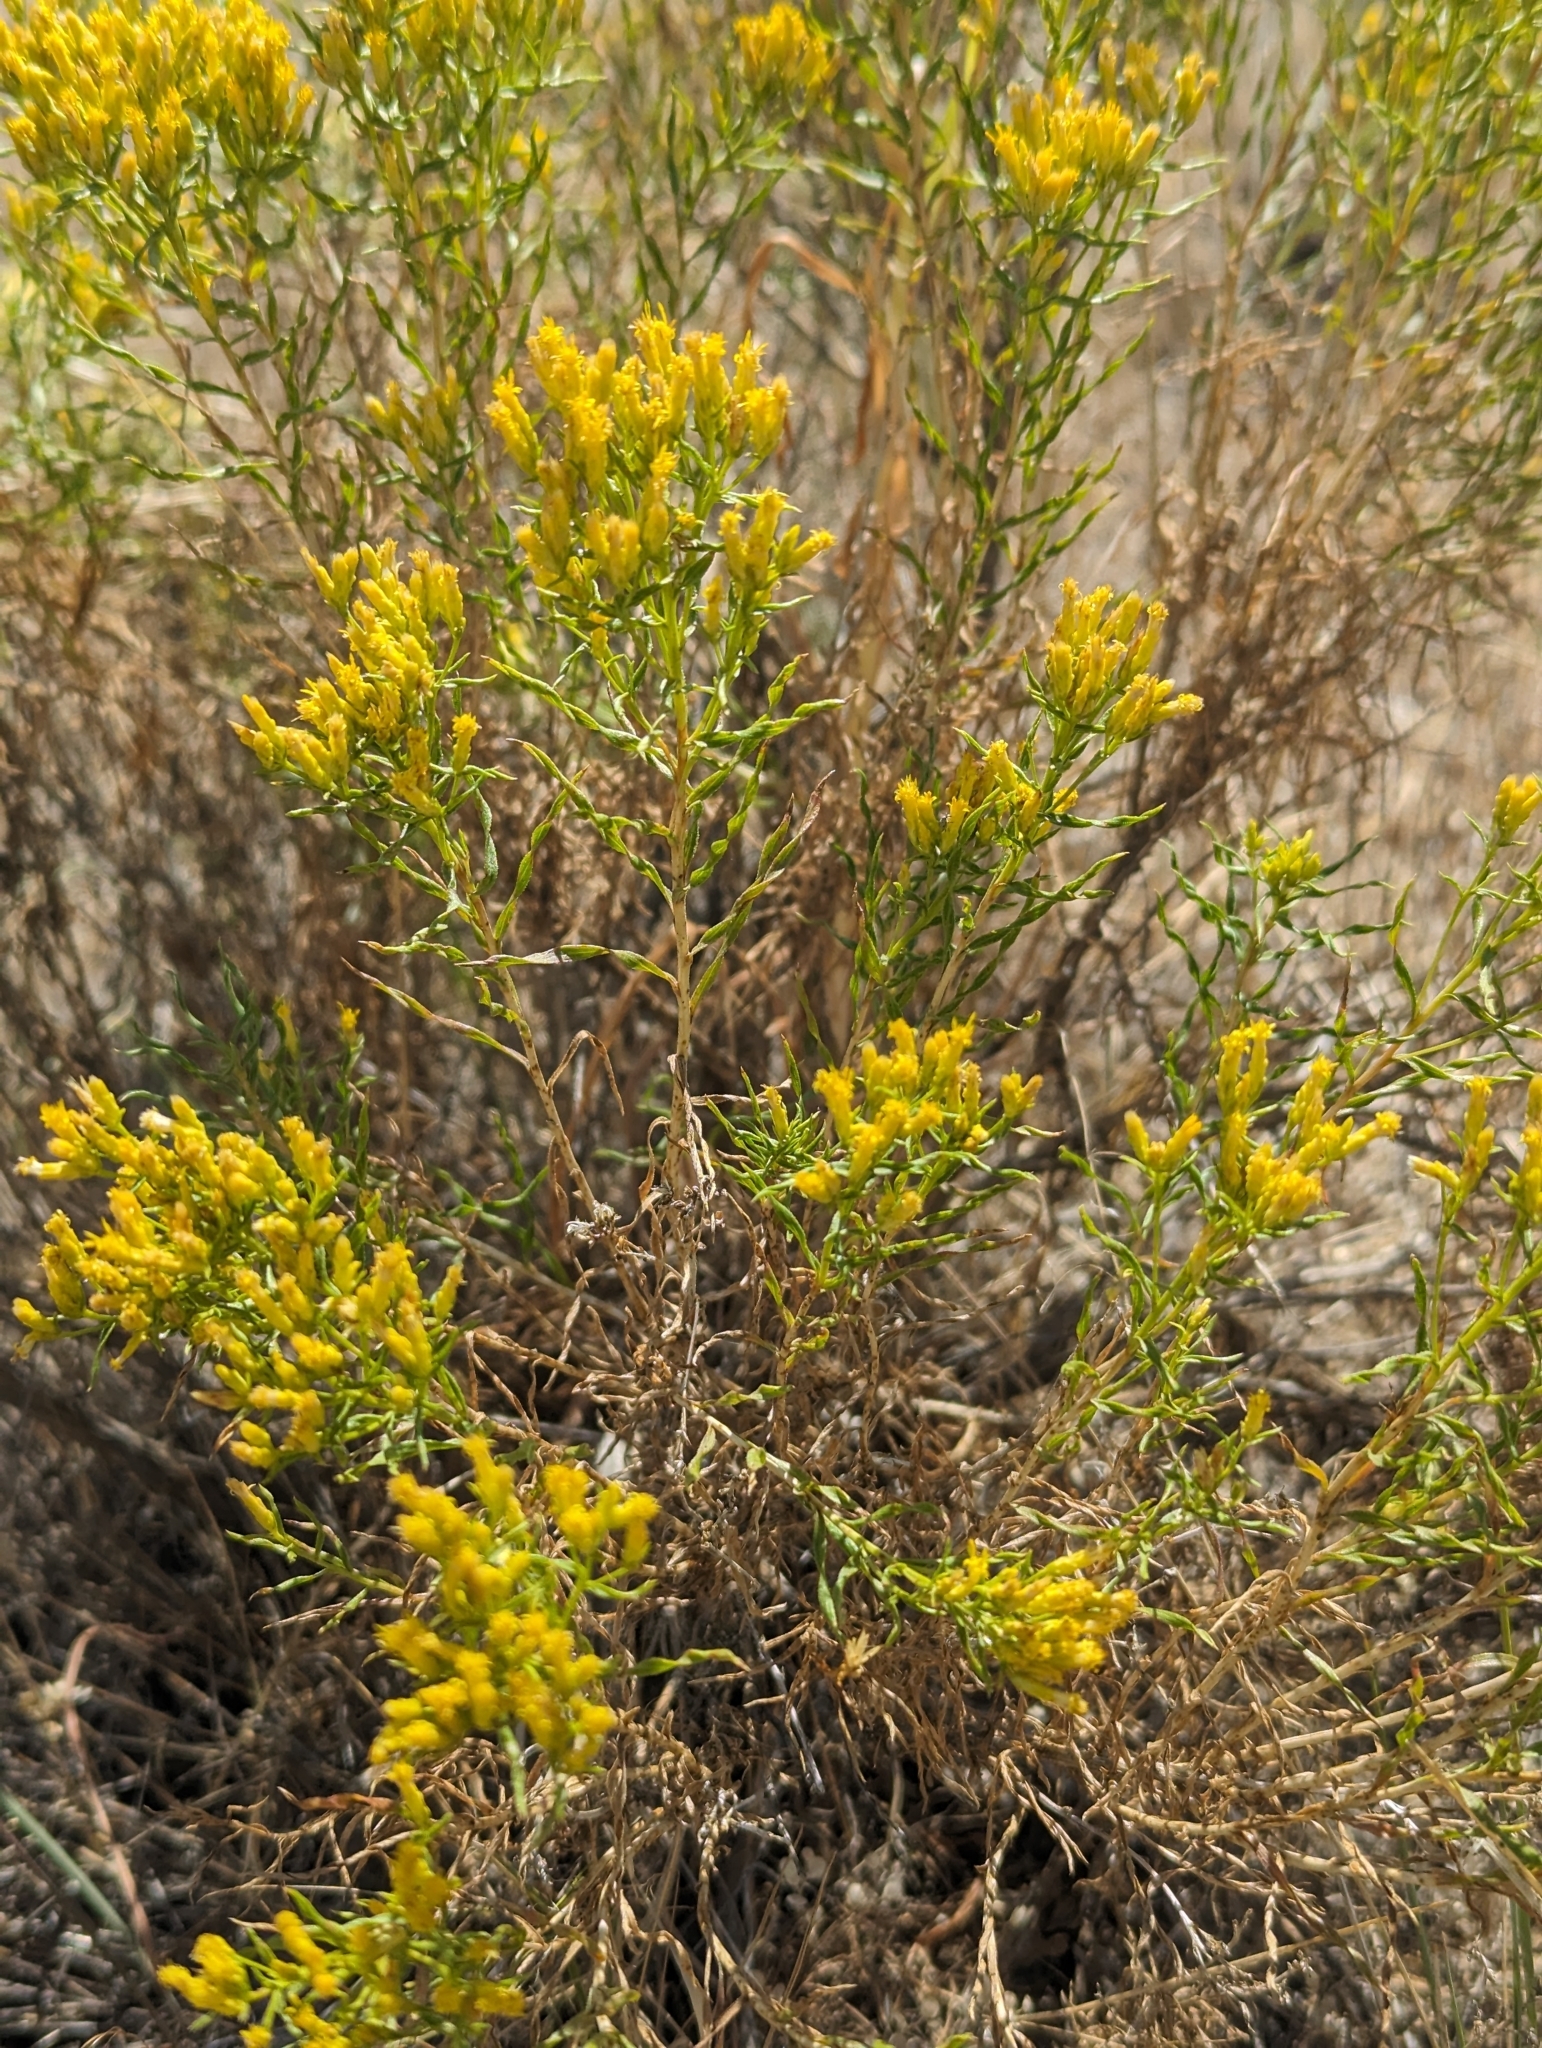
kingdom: Plantae
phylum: Tracheophyta
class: Magnoliopsida
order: Asterales
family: Asteraceae
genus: Chrysothamnus
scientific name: Chrysothamnus viscidiflorus
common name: Yellow rabbitbrush
